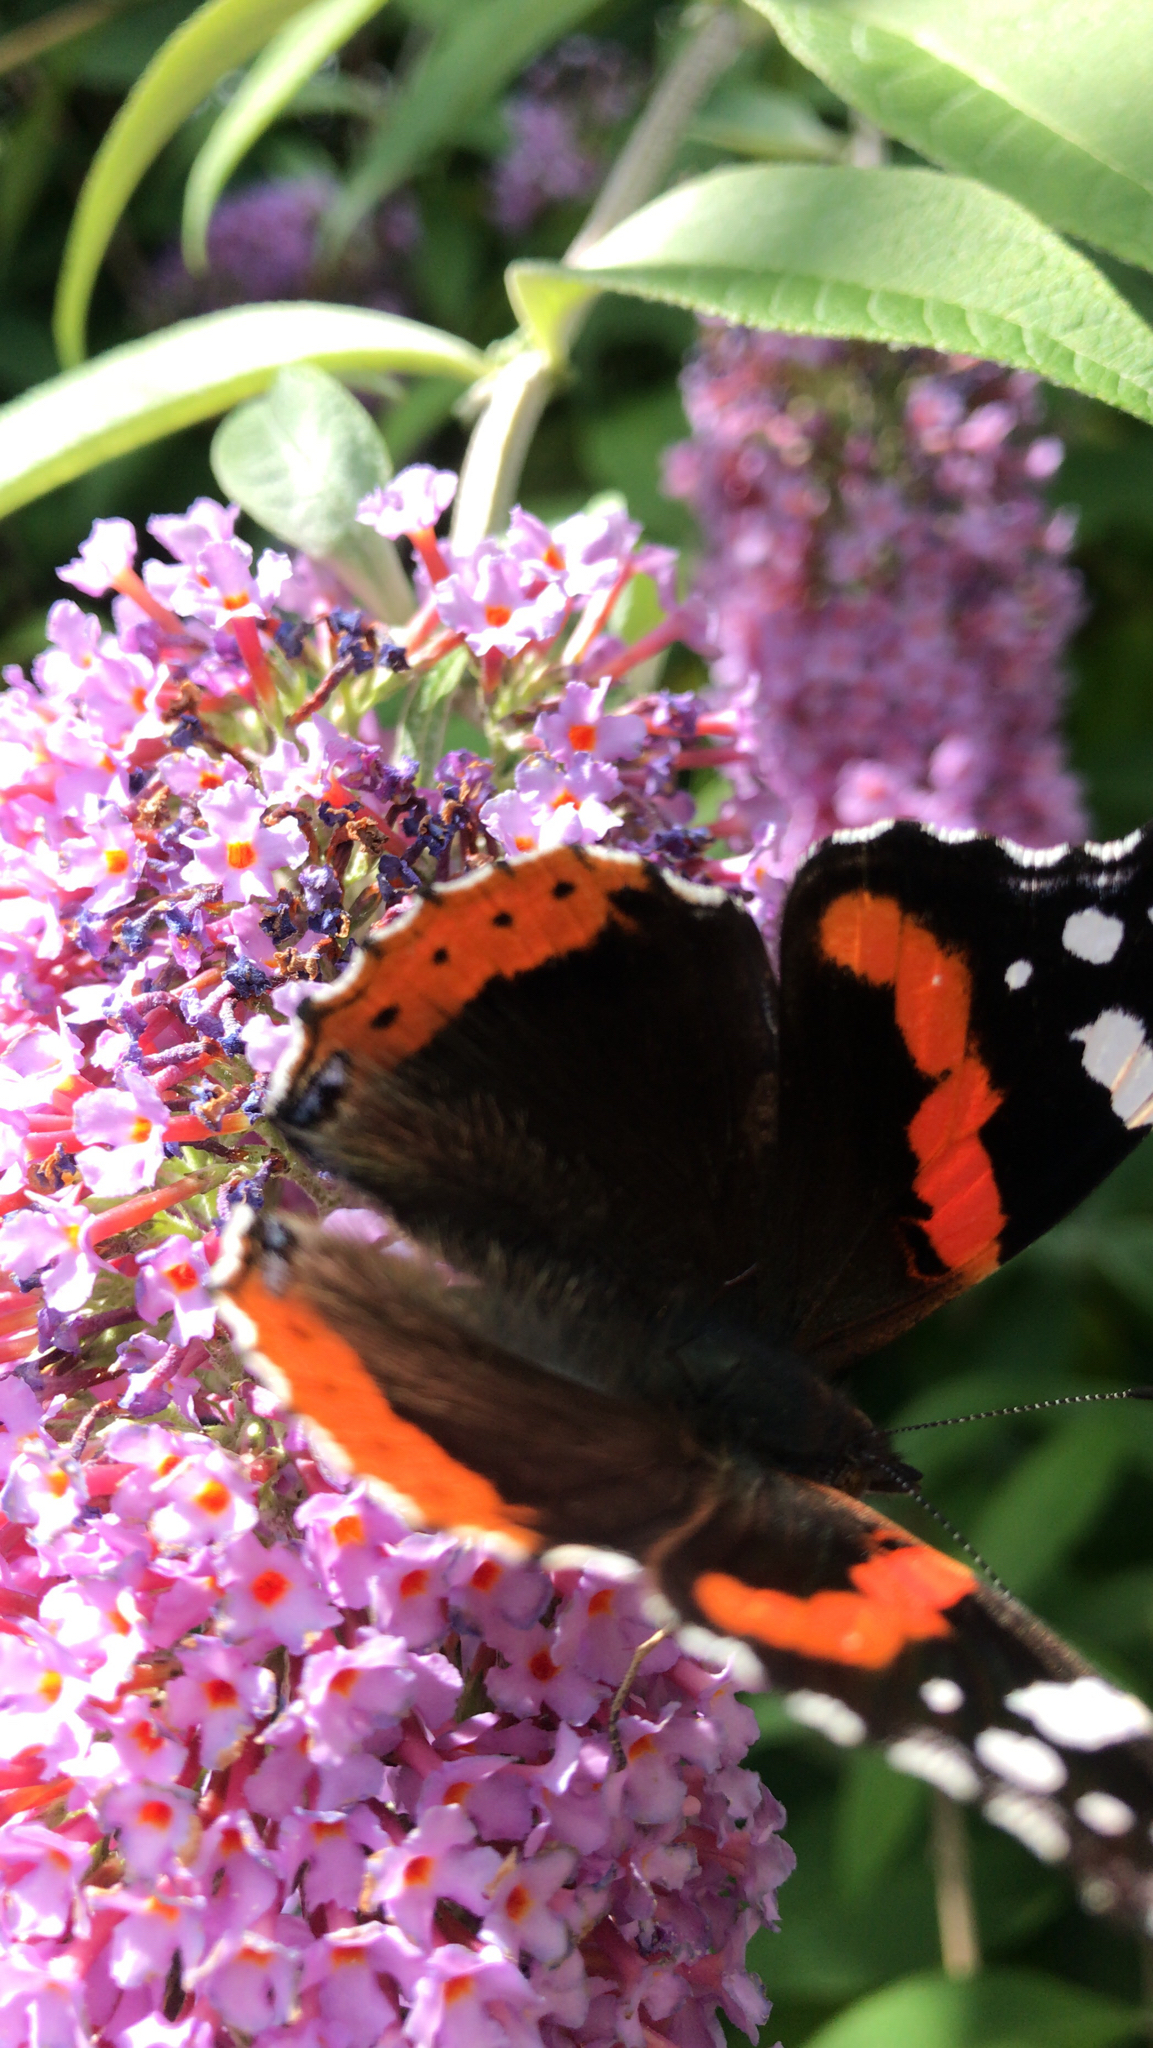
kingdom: Animalia
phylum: Arthropoda
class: Insecta
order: Lepidoptera
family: Nymphalidae
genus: Vanessa
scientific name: Vanessa atalanta
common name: Red admiral
